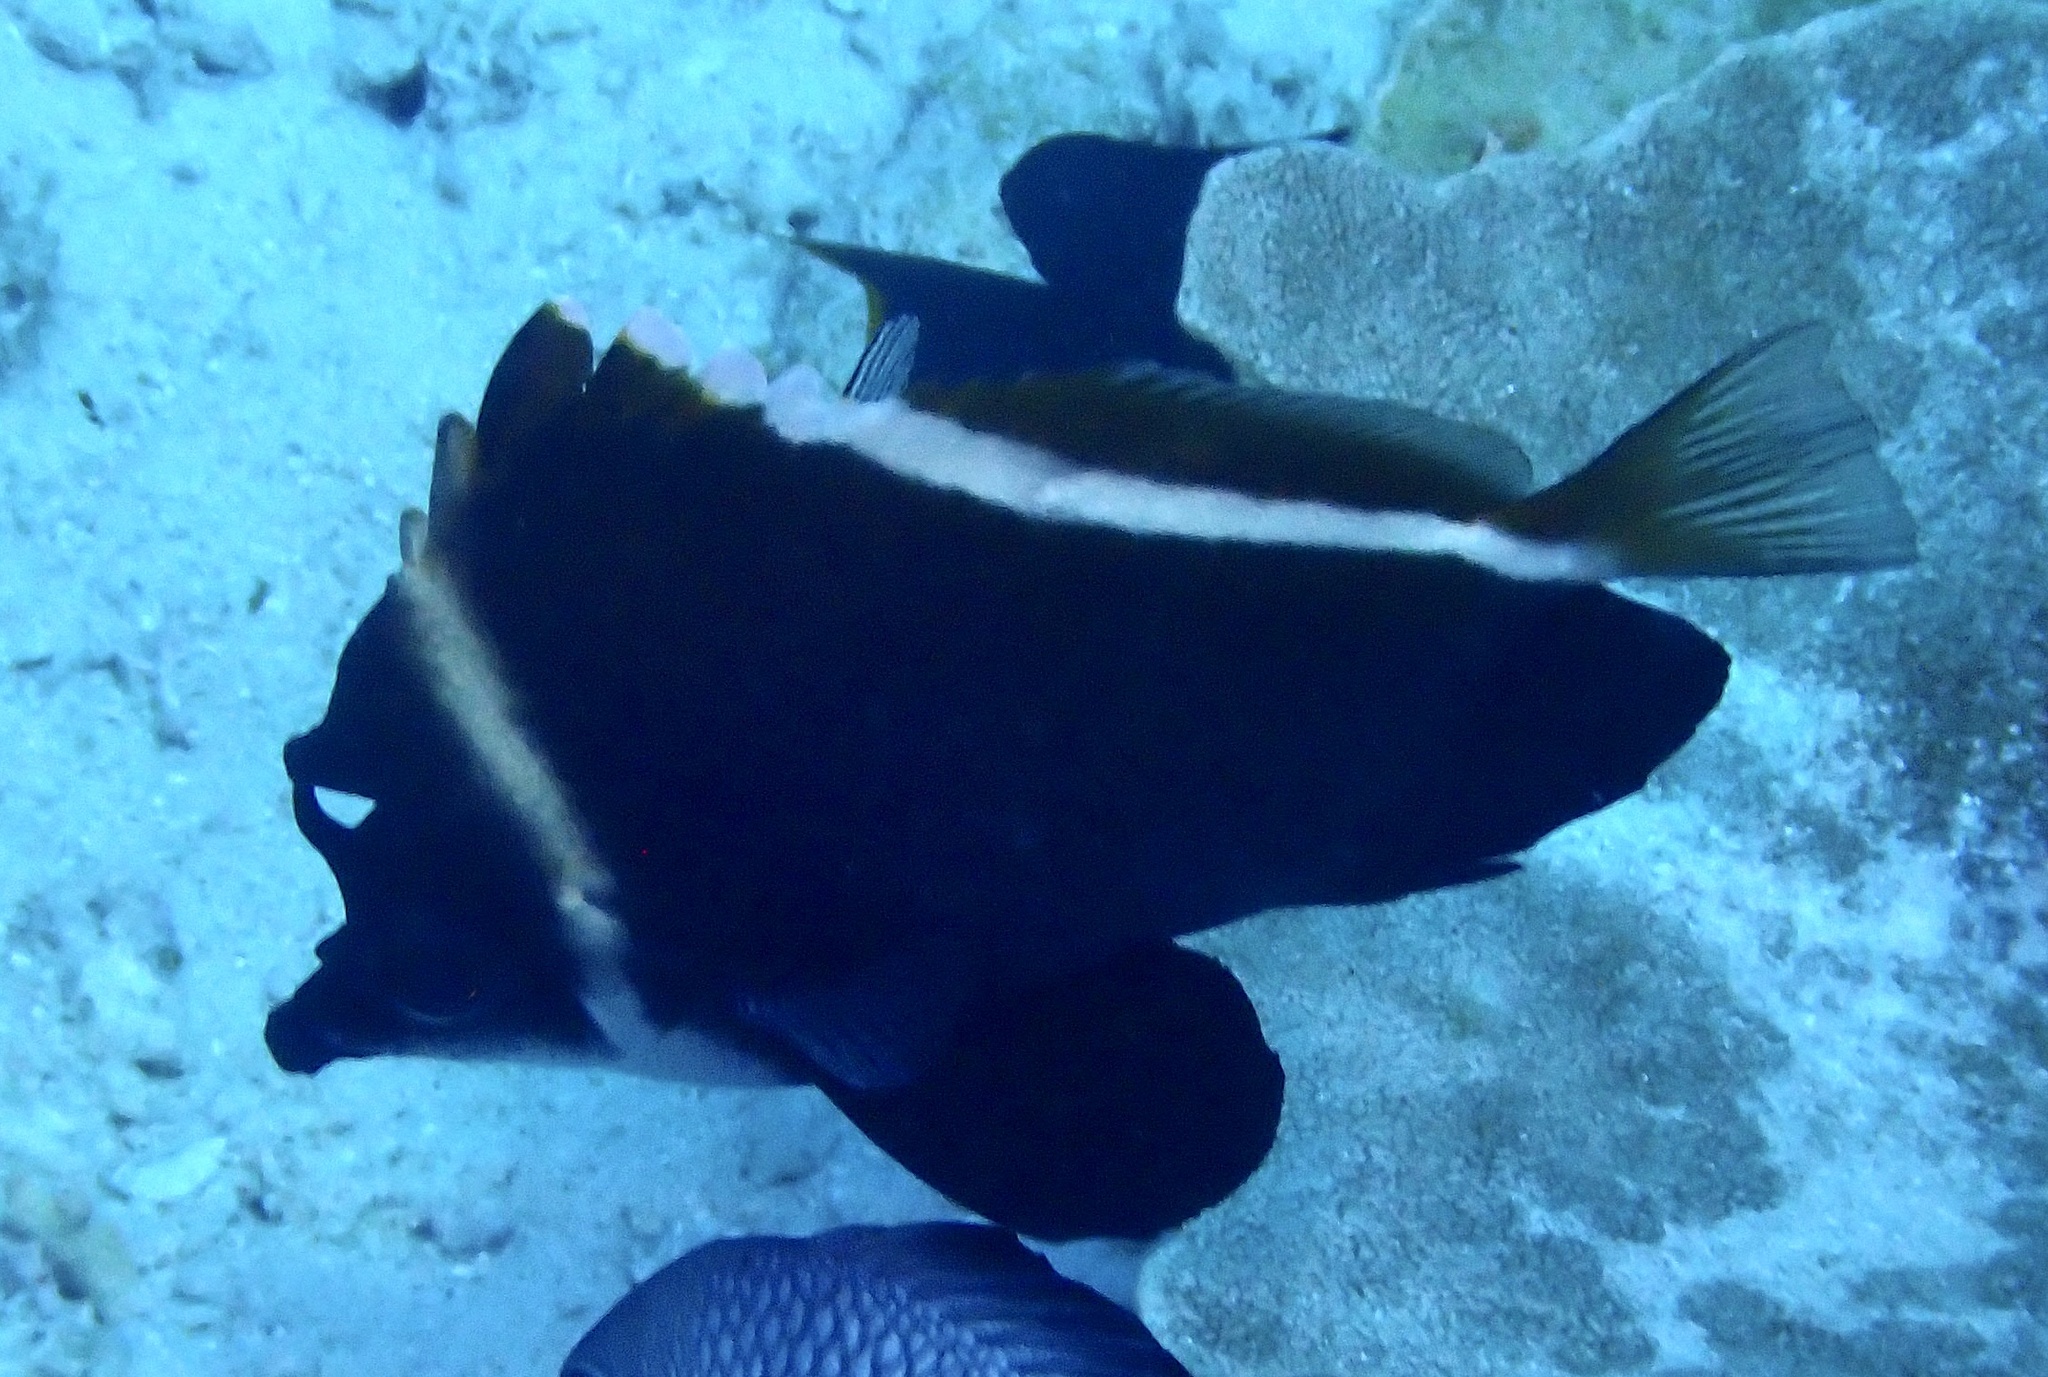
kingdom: Animalia
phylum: Chordata
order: Perciformes
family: Chaetodontidae
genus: Heniochus
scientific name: Heniochus varius
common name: Horned bannerfish
